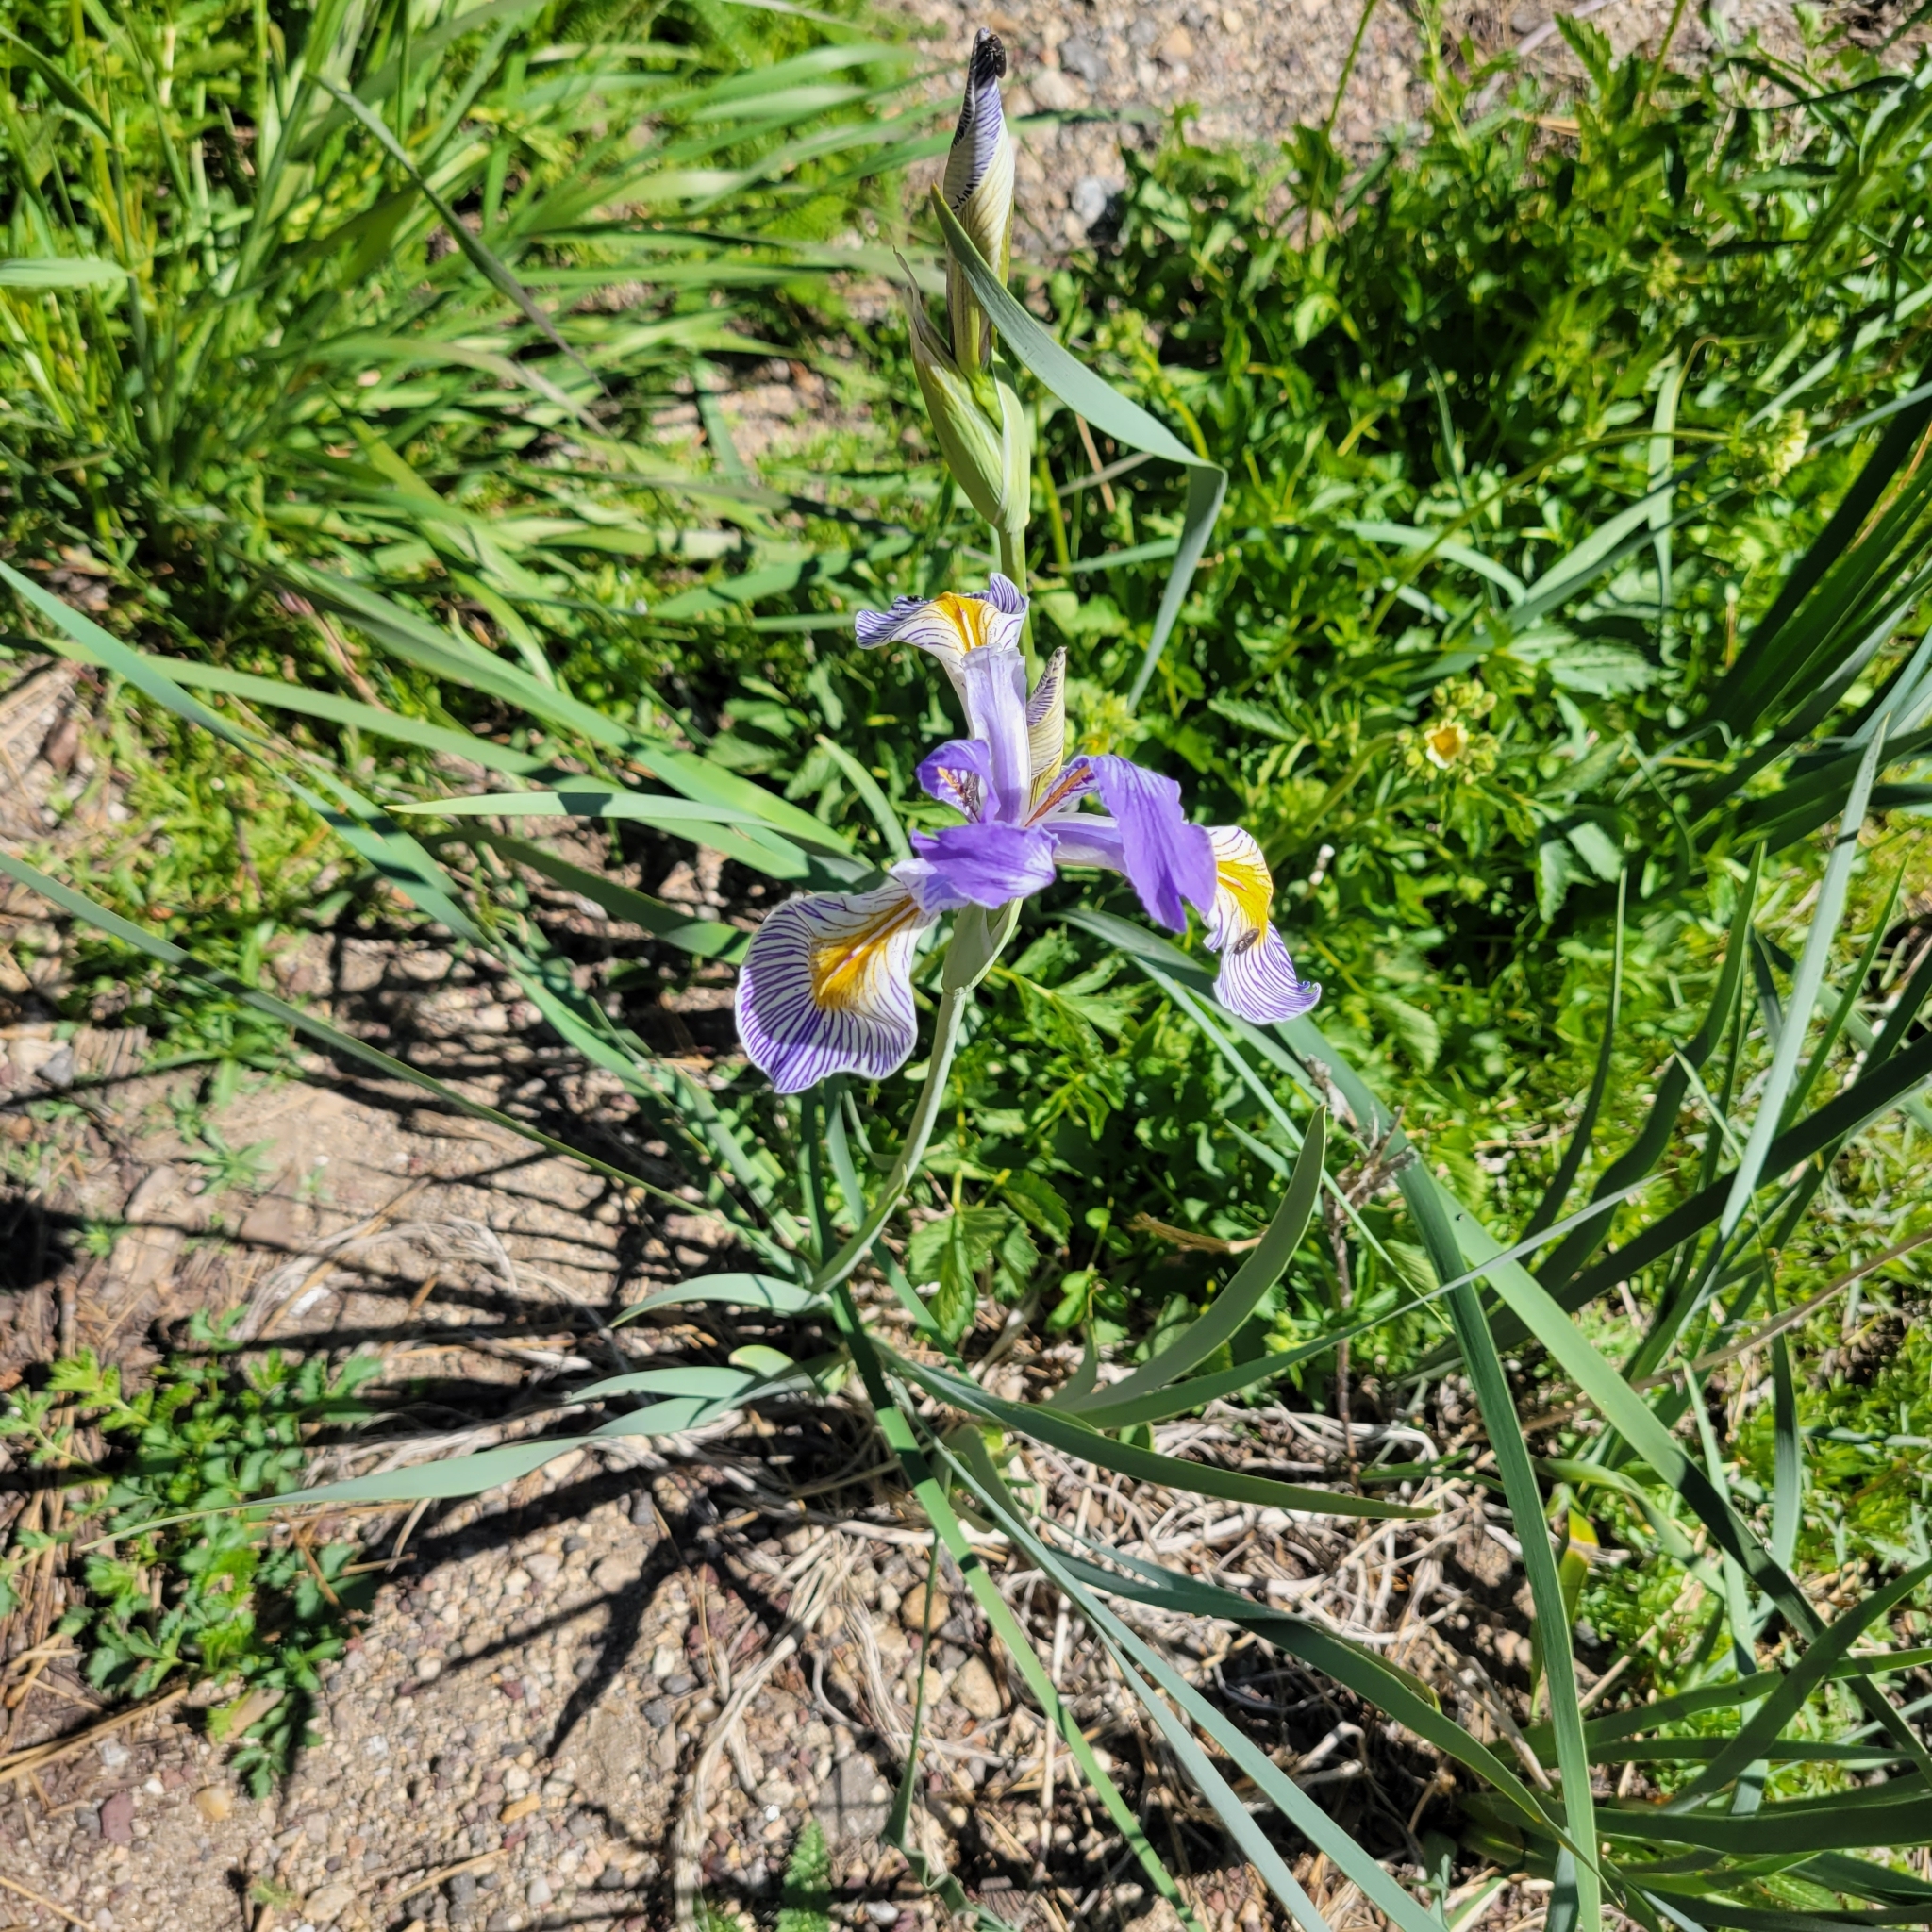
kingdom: Plantae
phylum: Tracheophyta
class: Liliopsida
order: Asparagales
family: Iridaceae
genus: Iris
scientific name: Iris missouriensis
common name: Rocky mountain iris
